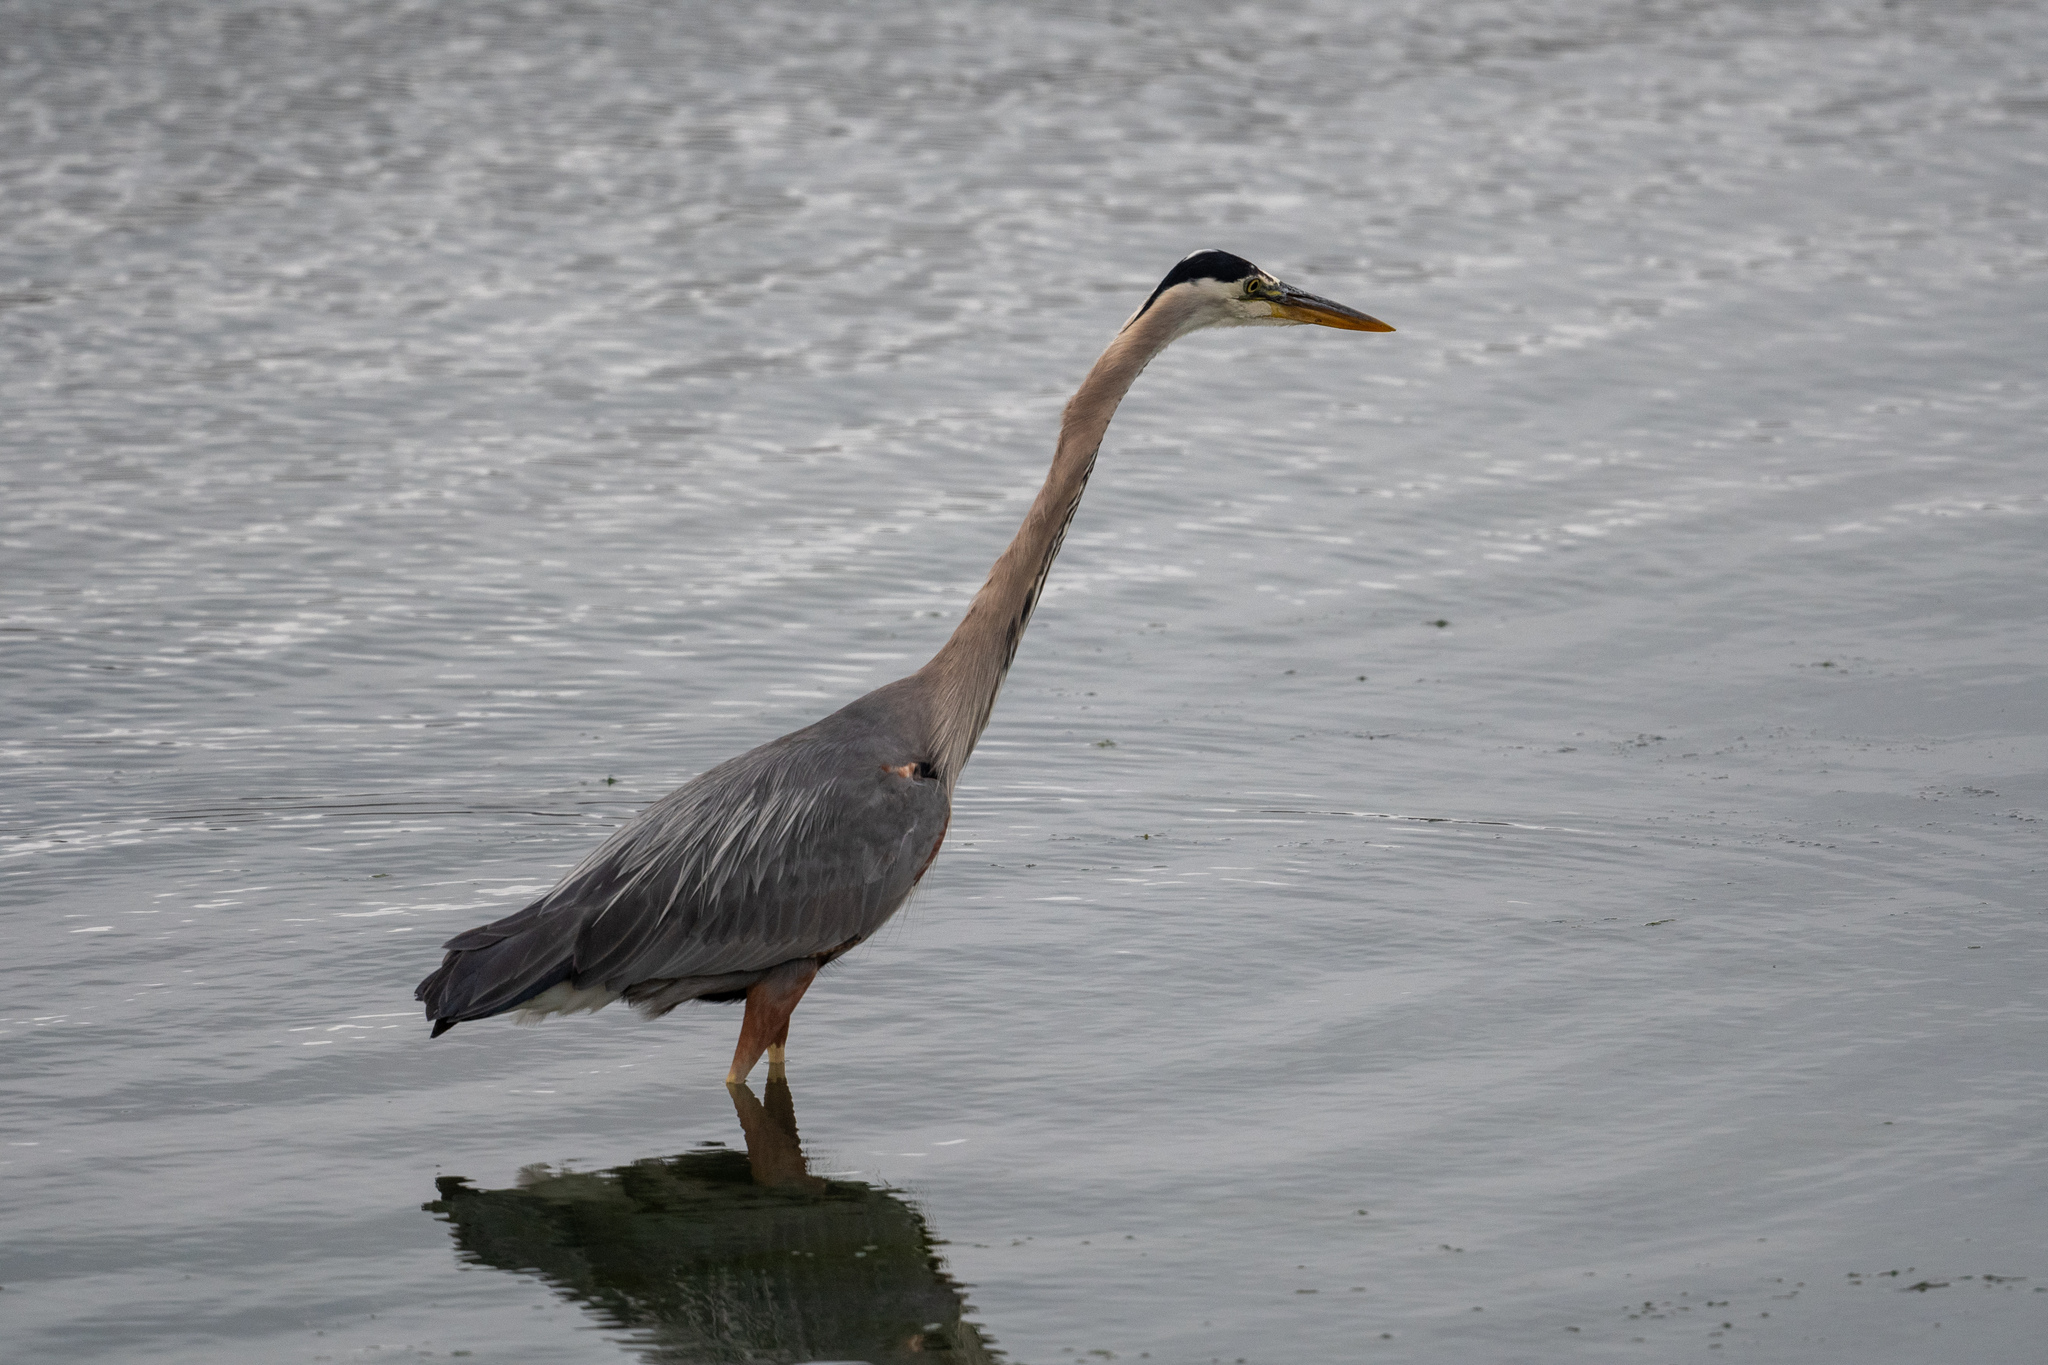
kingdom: Animalia
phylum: Chordata
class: Aves
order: Pelecaniformes
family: Ardeidae
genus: Ardea
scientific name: Ardea herodias
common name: Great blue heron
